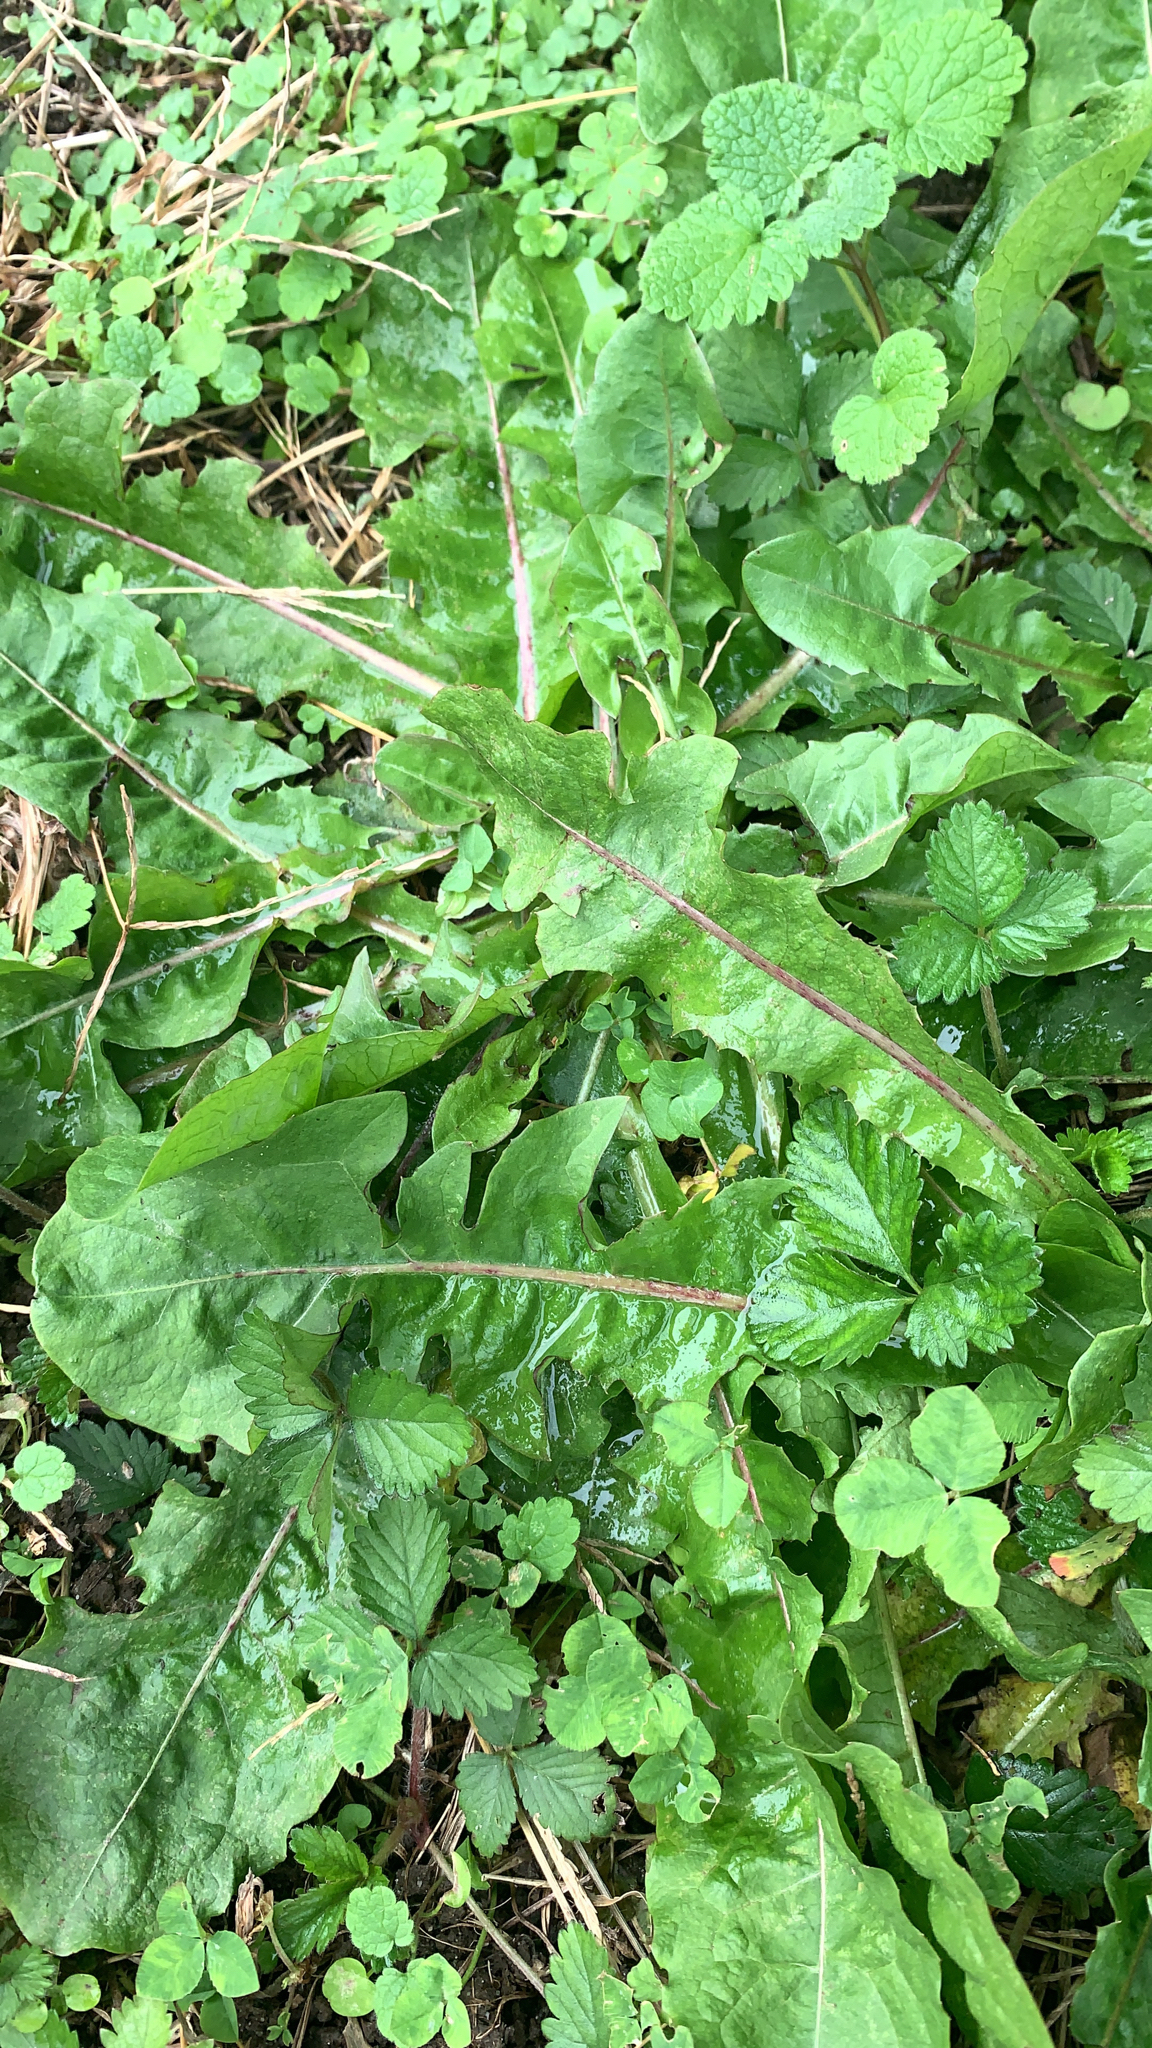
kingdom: Plantae
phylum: Tracheophyta
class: Magnoliopsida
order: Asterales
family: Asteraceae
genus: Taraxacum
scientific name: Taraxacum officinale
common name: Common dandelion
